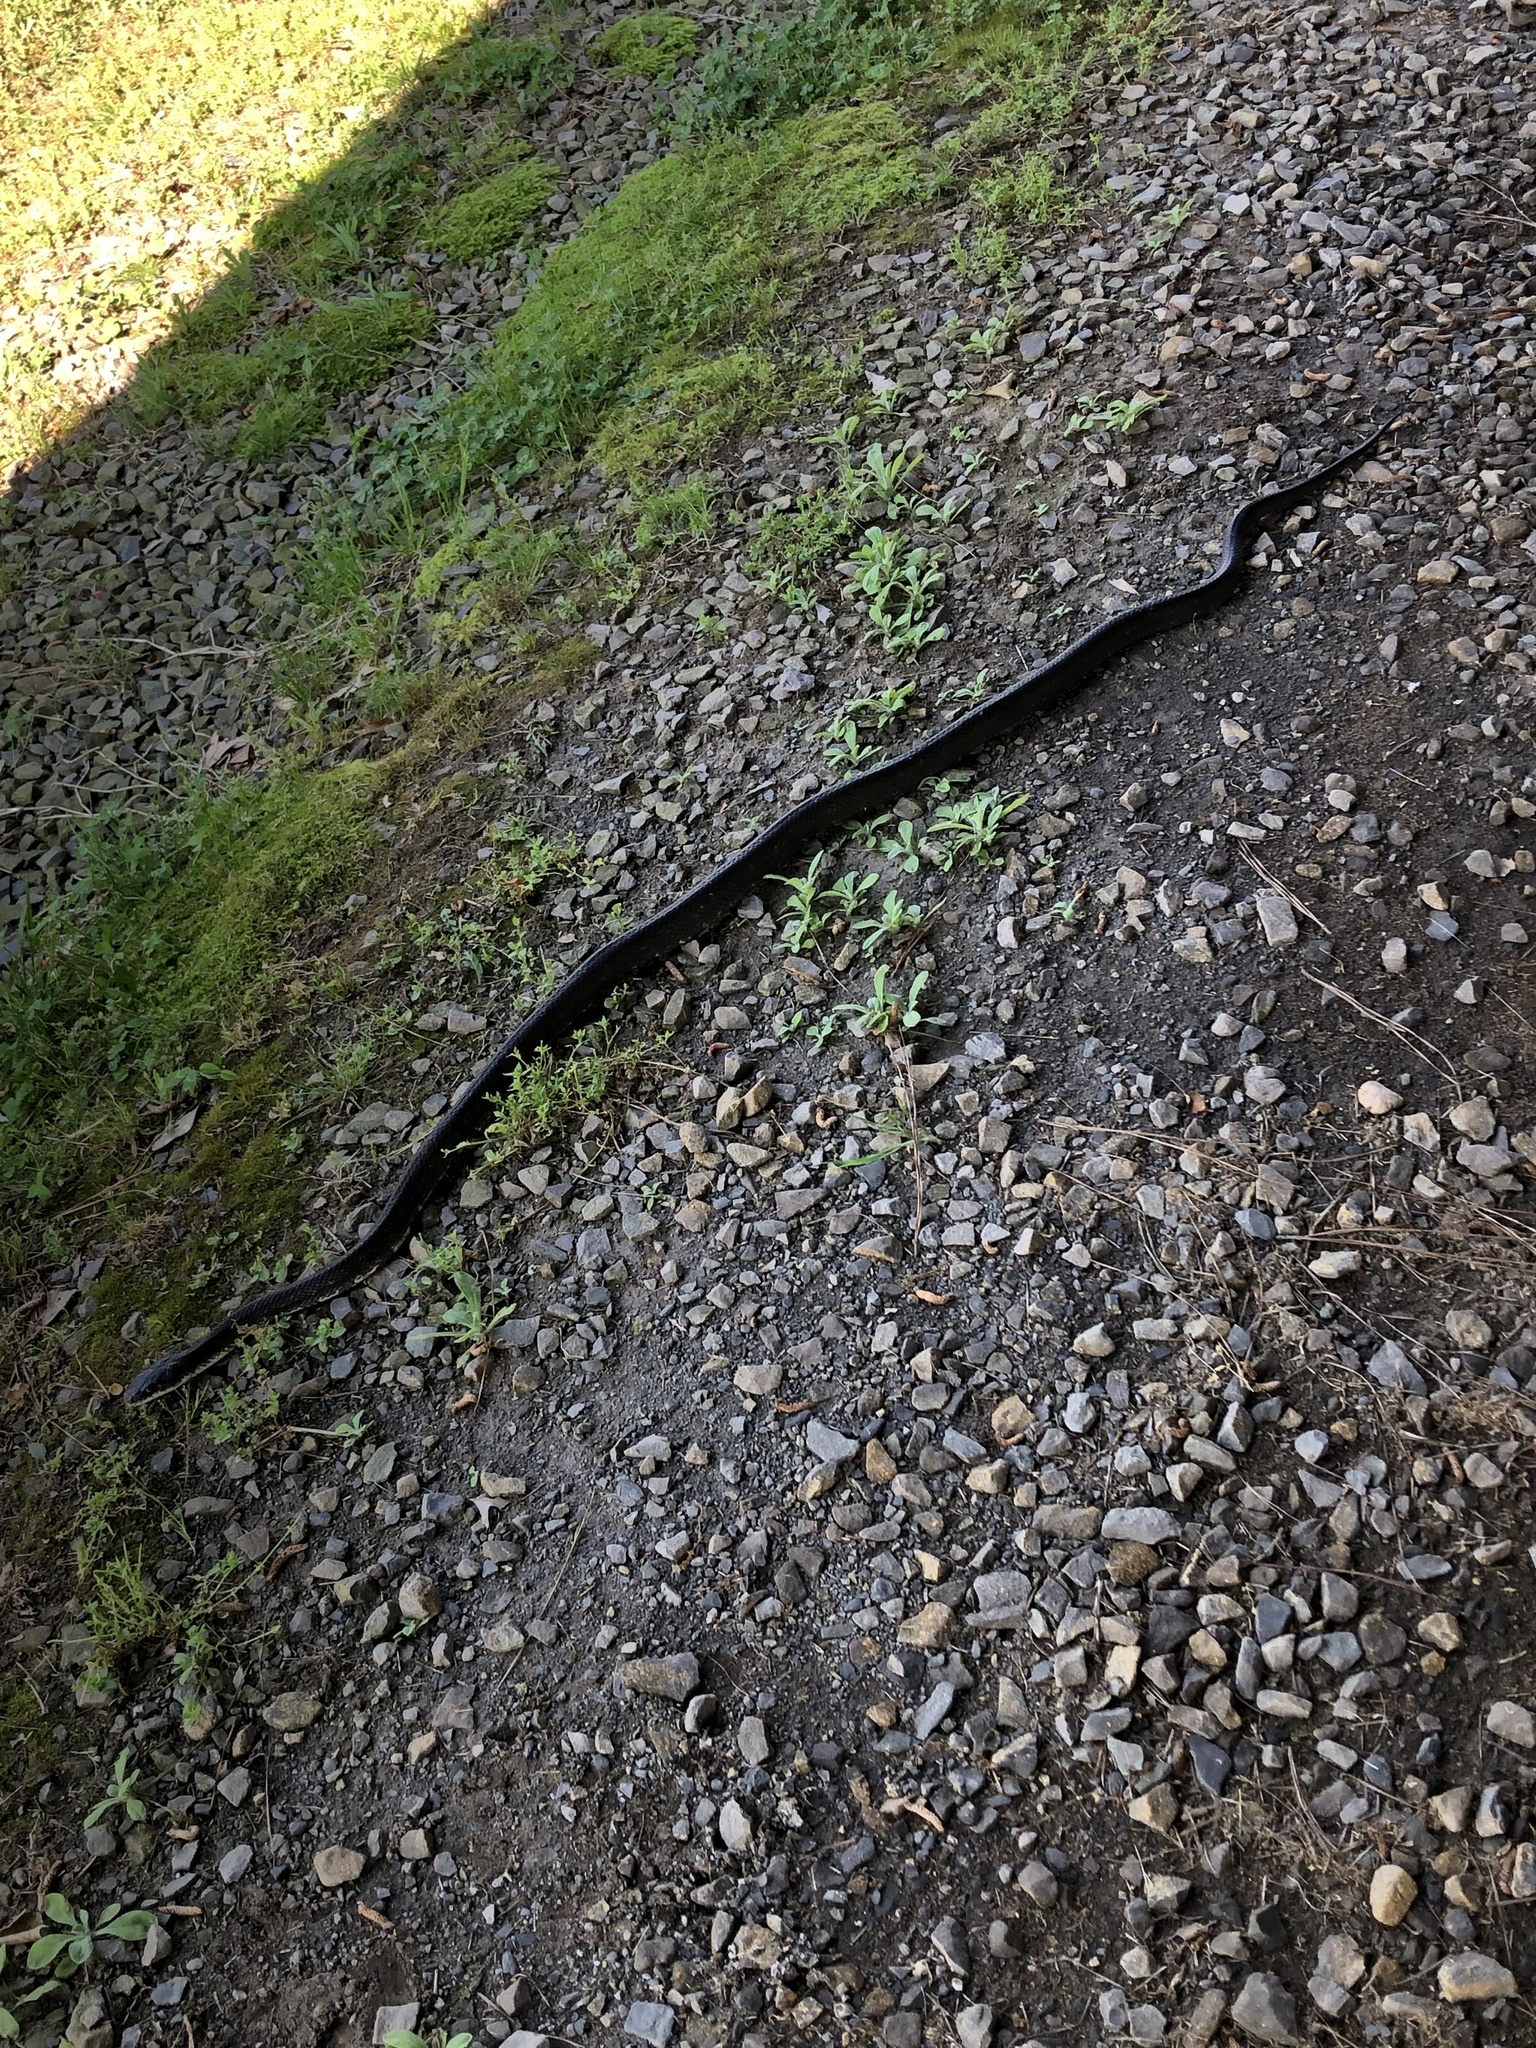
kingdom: Animalia
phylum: Chordata
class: Squamata
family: Colubridae
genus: Pantherophis
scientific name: Pantherophis obsoletus
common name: Black rat snake
